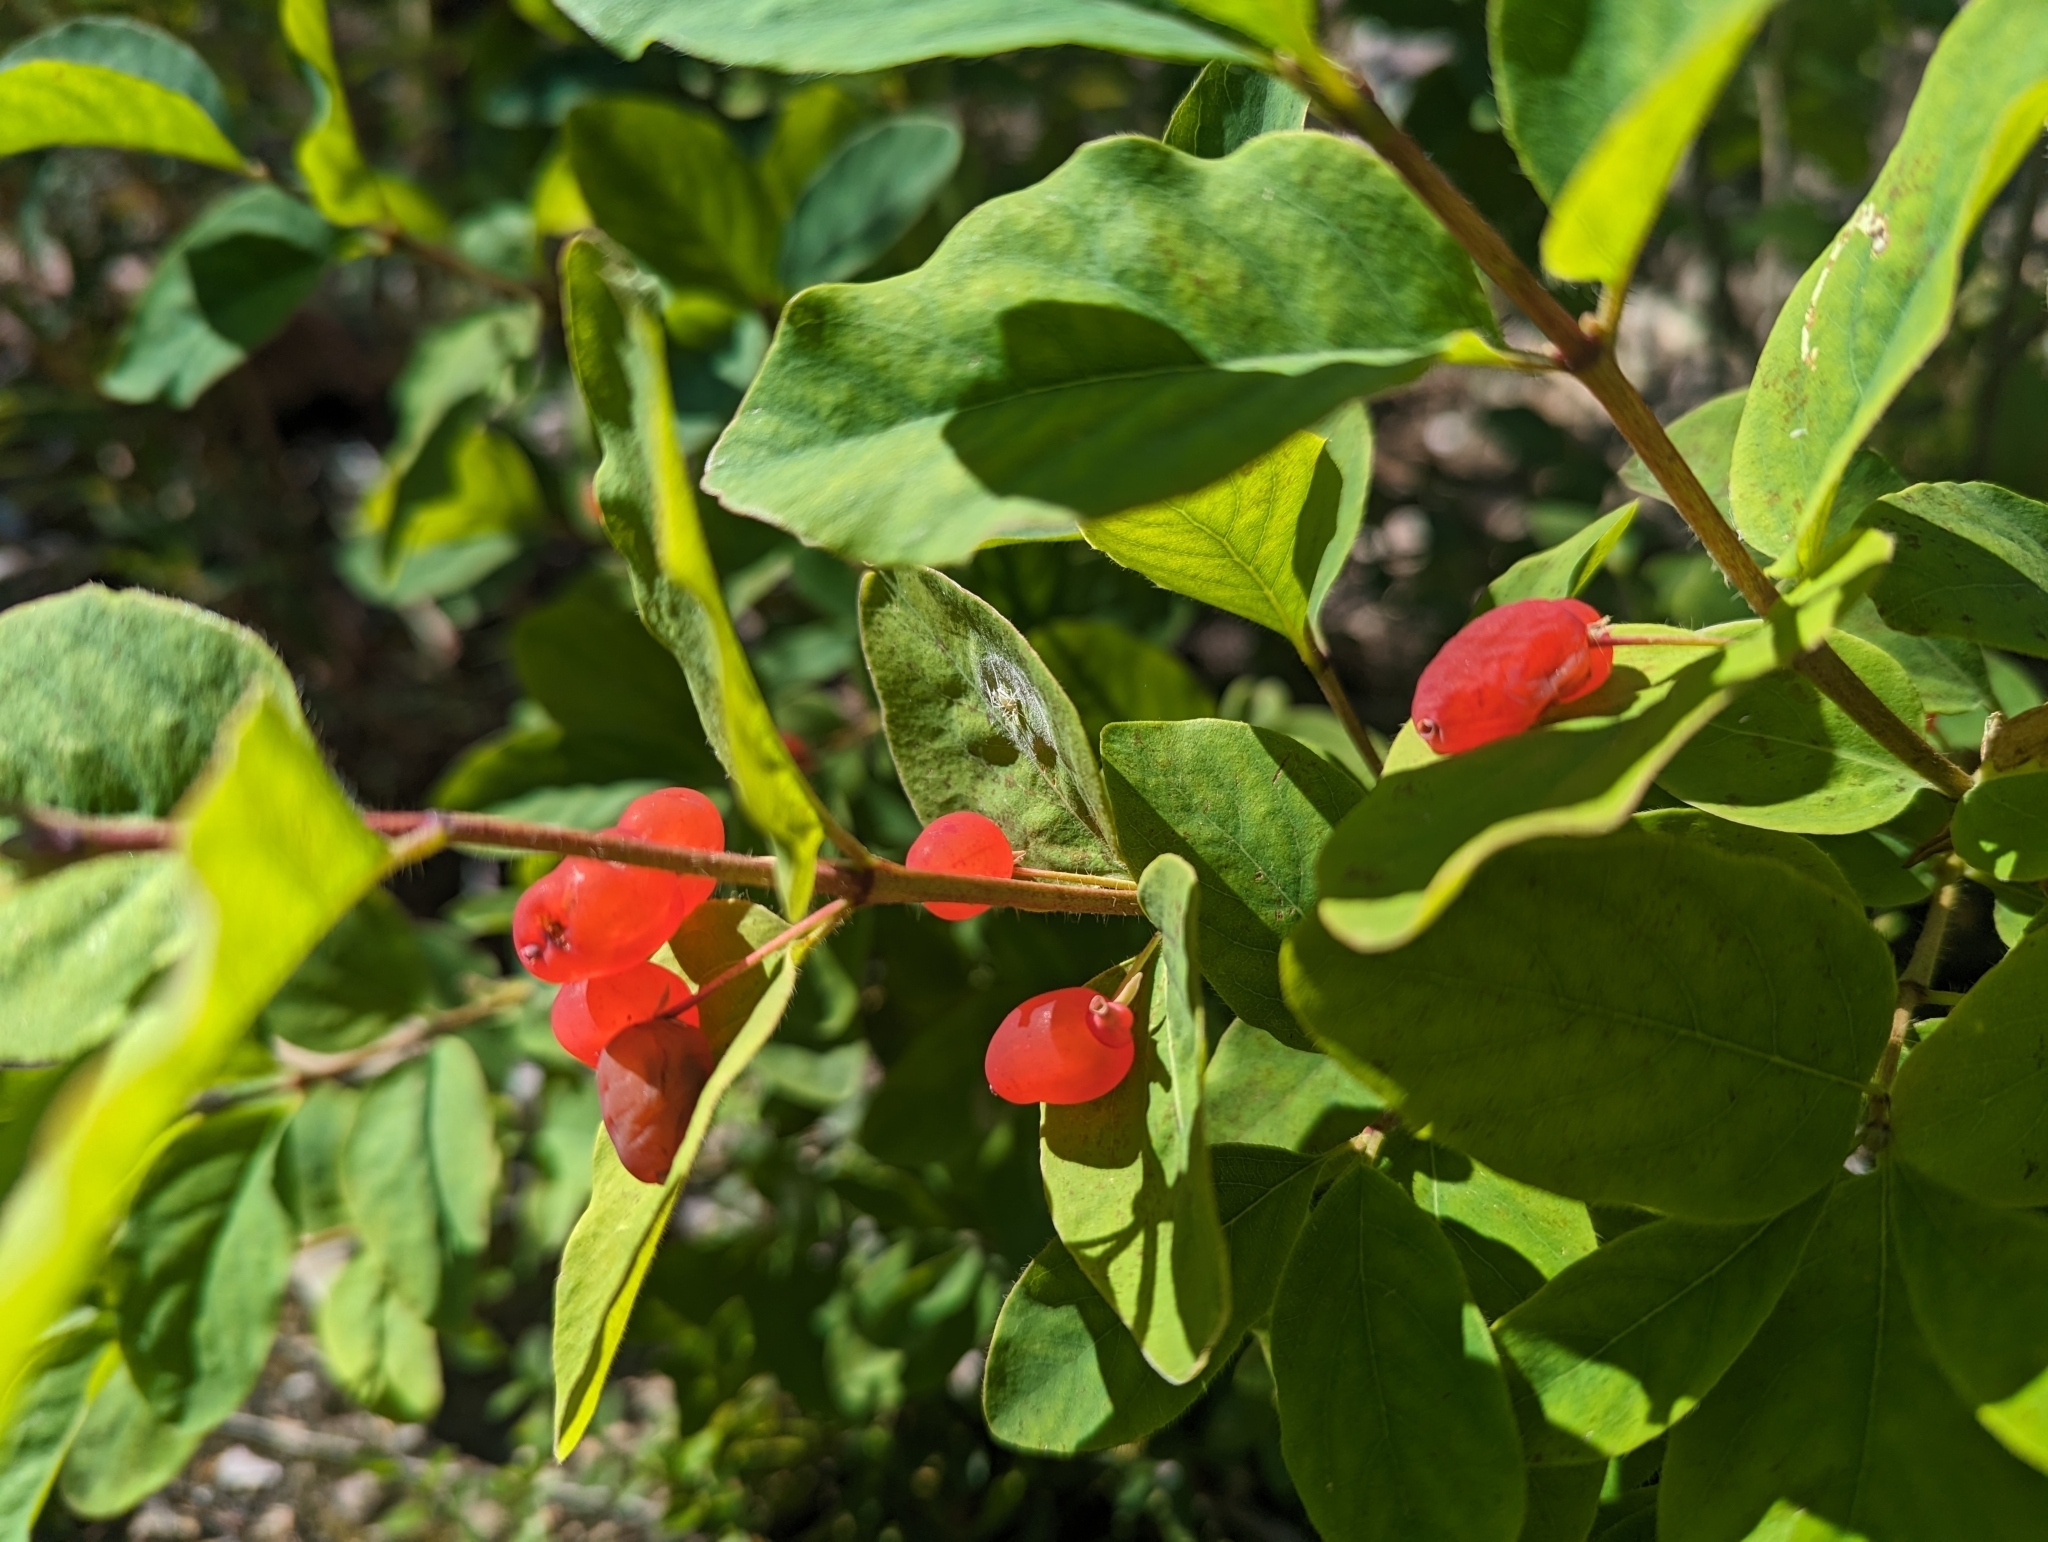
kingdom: Plantae
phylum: Tracheophyta
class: Magnoliopsida
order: Dipsacales
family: Caprifoliaceae
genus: Lonicera
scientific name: Lonicera utahensis
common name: Utah honeysuckle
